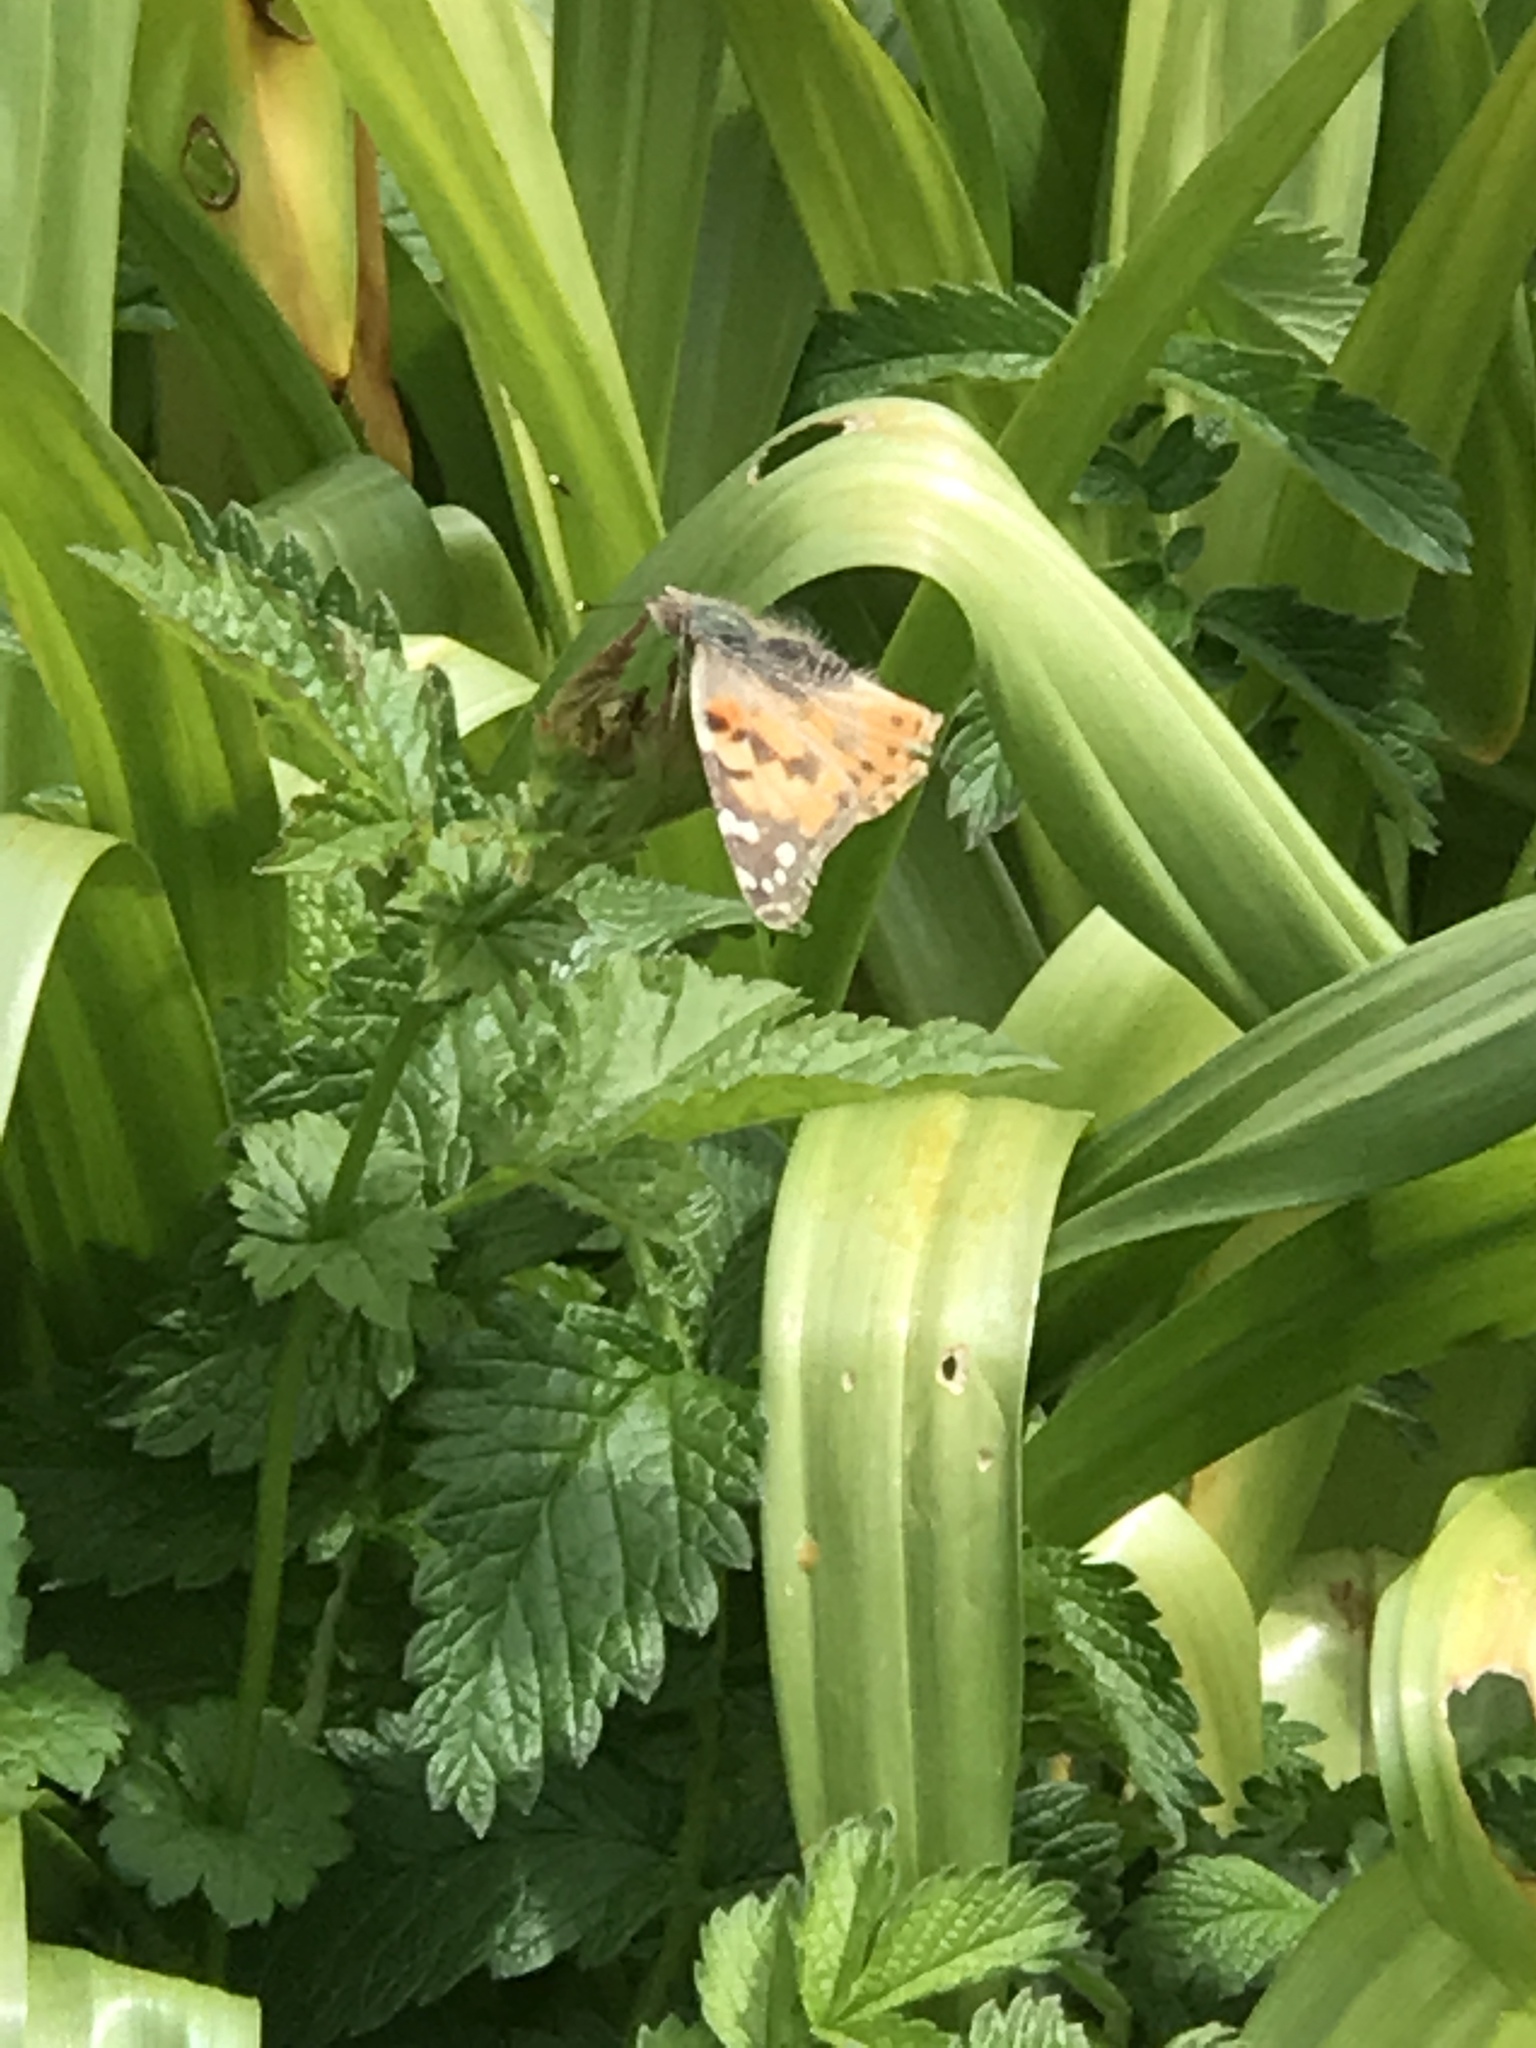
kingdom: Animalia
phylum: Arthropoda
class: Insecta
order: Lepidoptera
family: Nymphalidae
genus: Vanessa
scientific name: Vanessa cardui
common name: Painted lady
